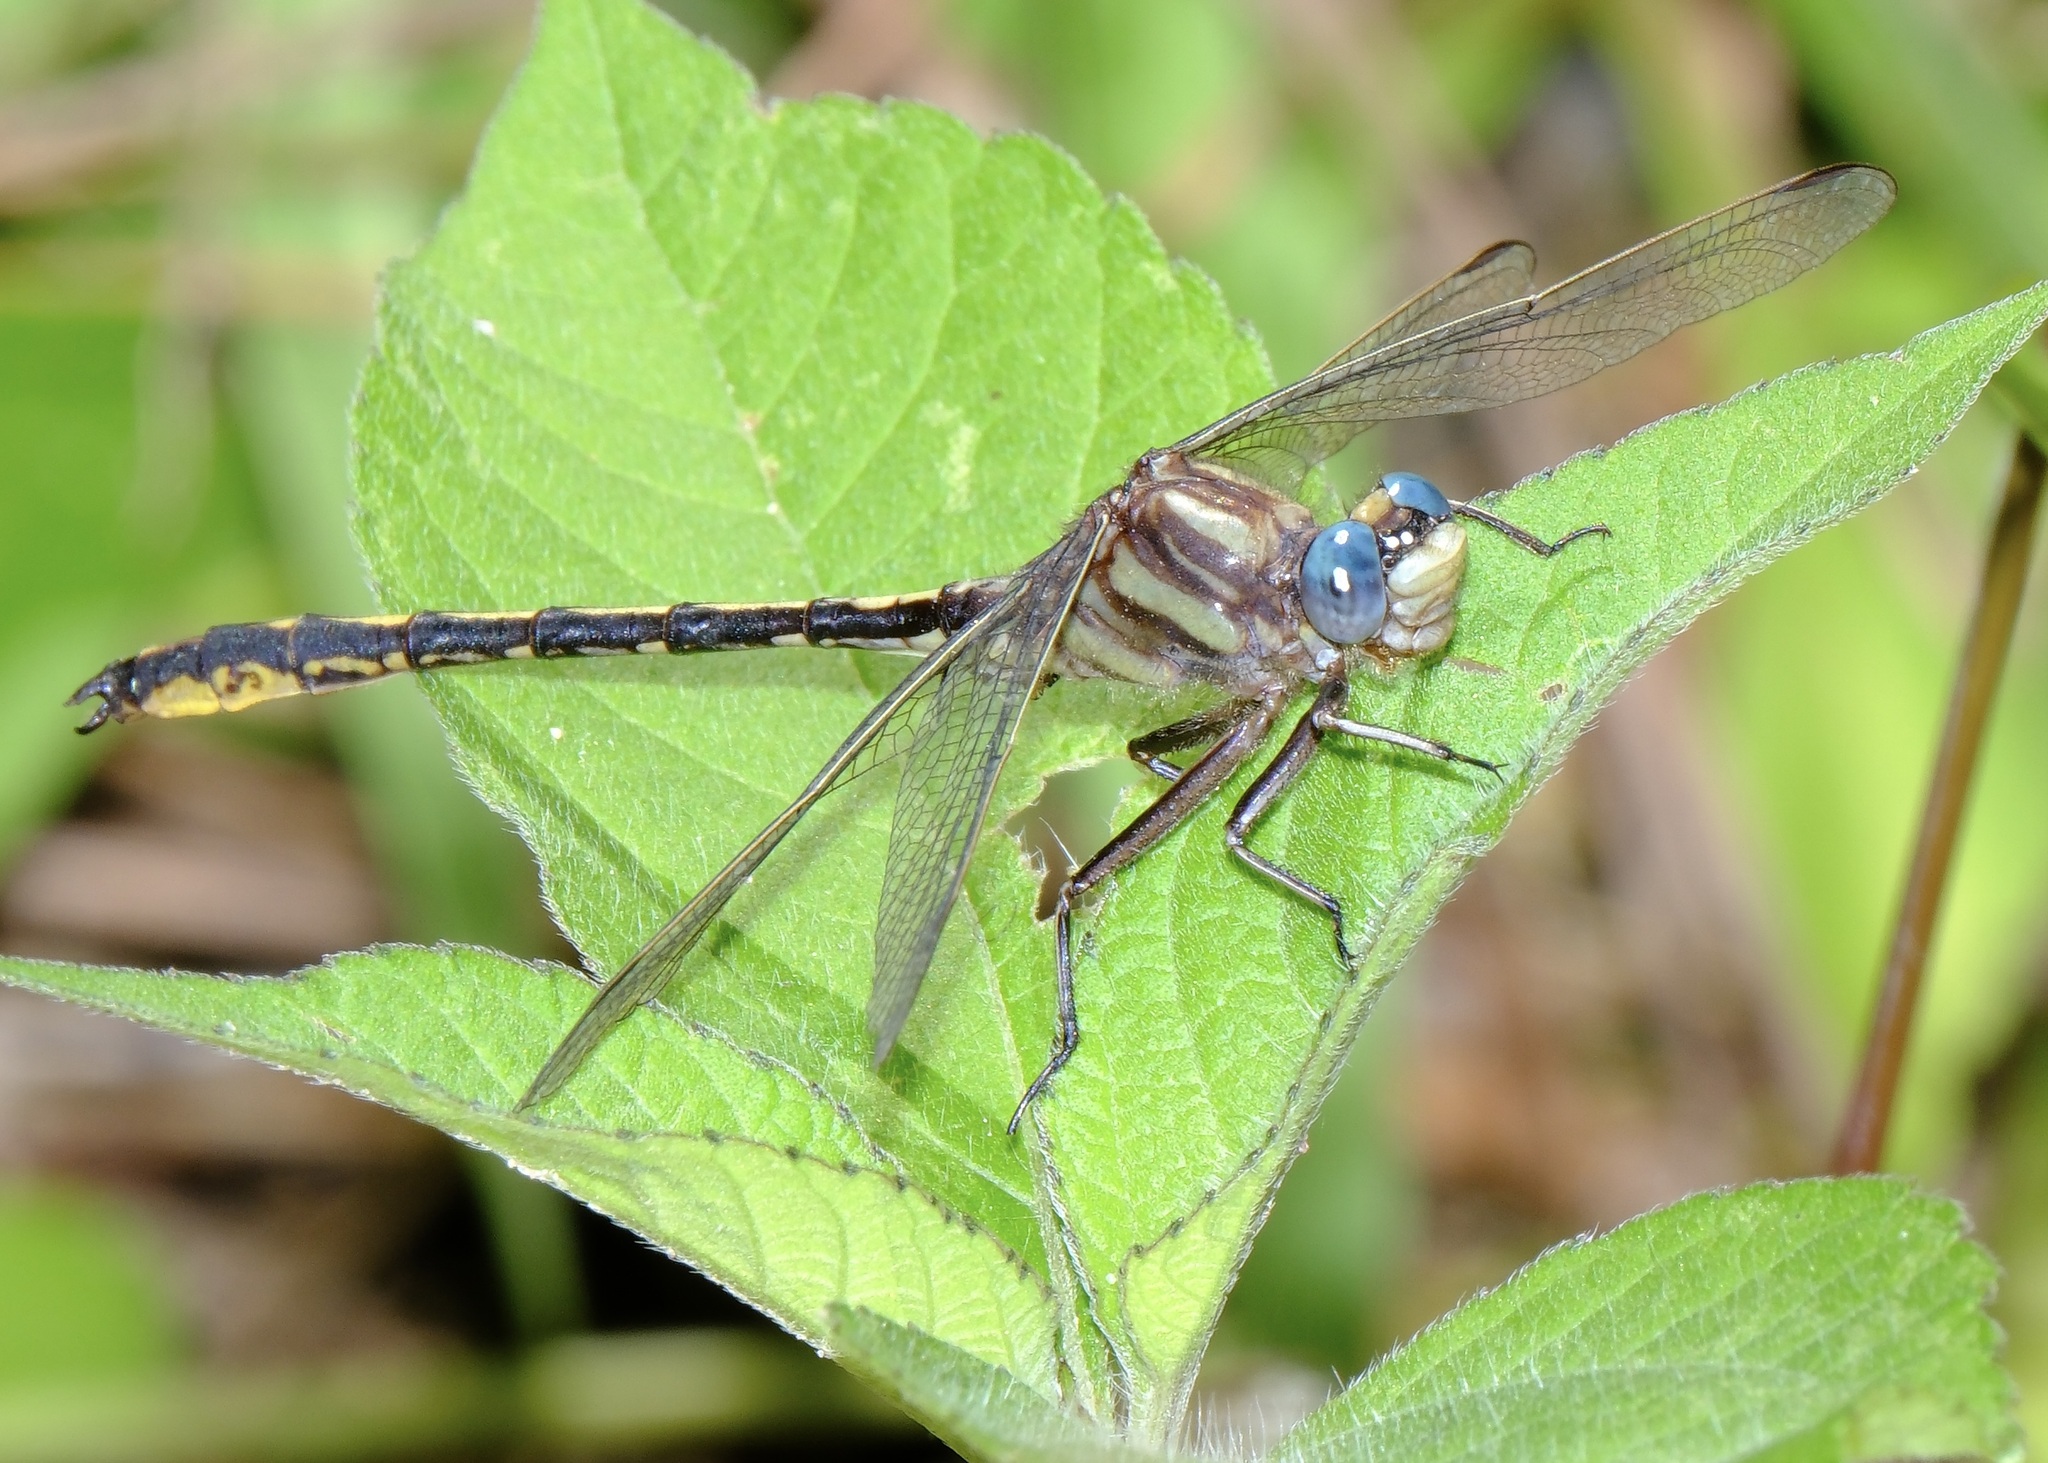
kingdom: Animalia
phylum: Arthropoda
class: Insecta
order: Odonata
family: Gomphidae
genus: Phanogomphus
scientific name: Phanogomphus oklahomensis
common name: Oklahoma clubtail
